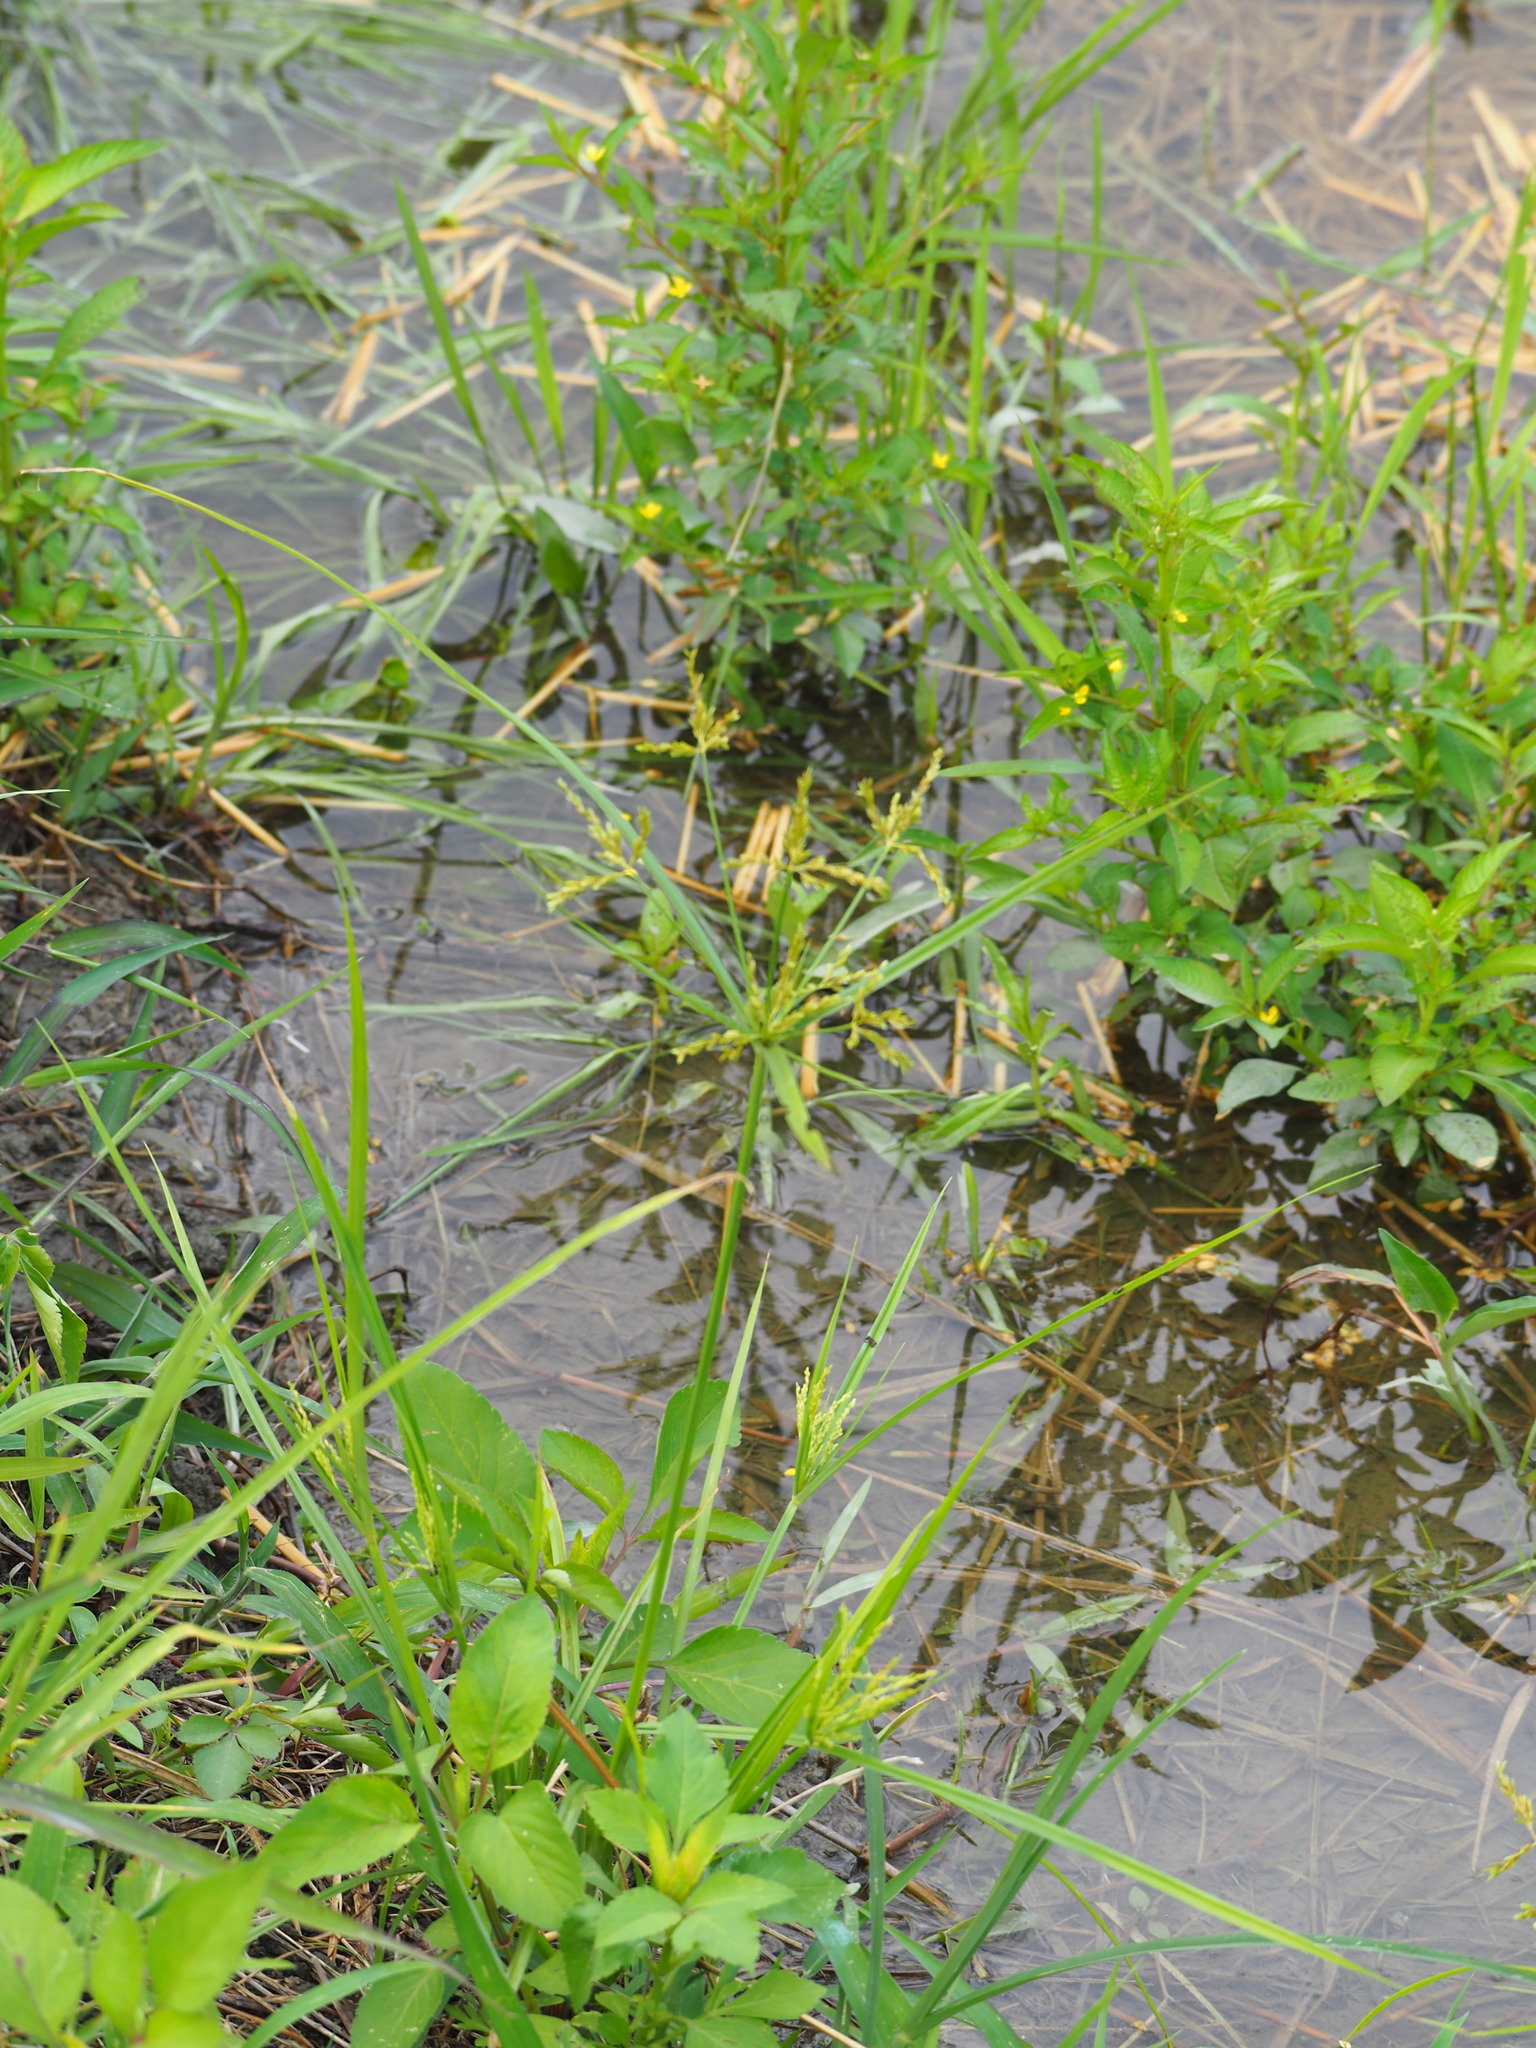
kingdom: Plantae
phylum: Tracheophyta
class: Liliopsida
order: Poales
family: Cyperaceae
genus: Cyperus
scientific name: Cyperus iria
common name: Ricefield flatsedge
